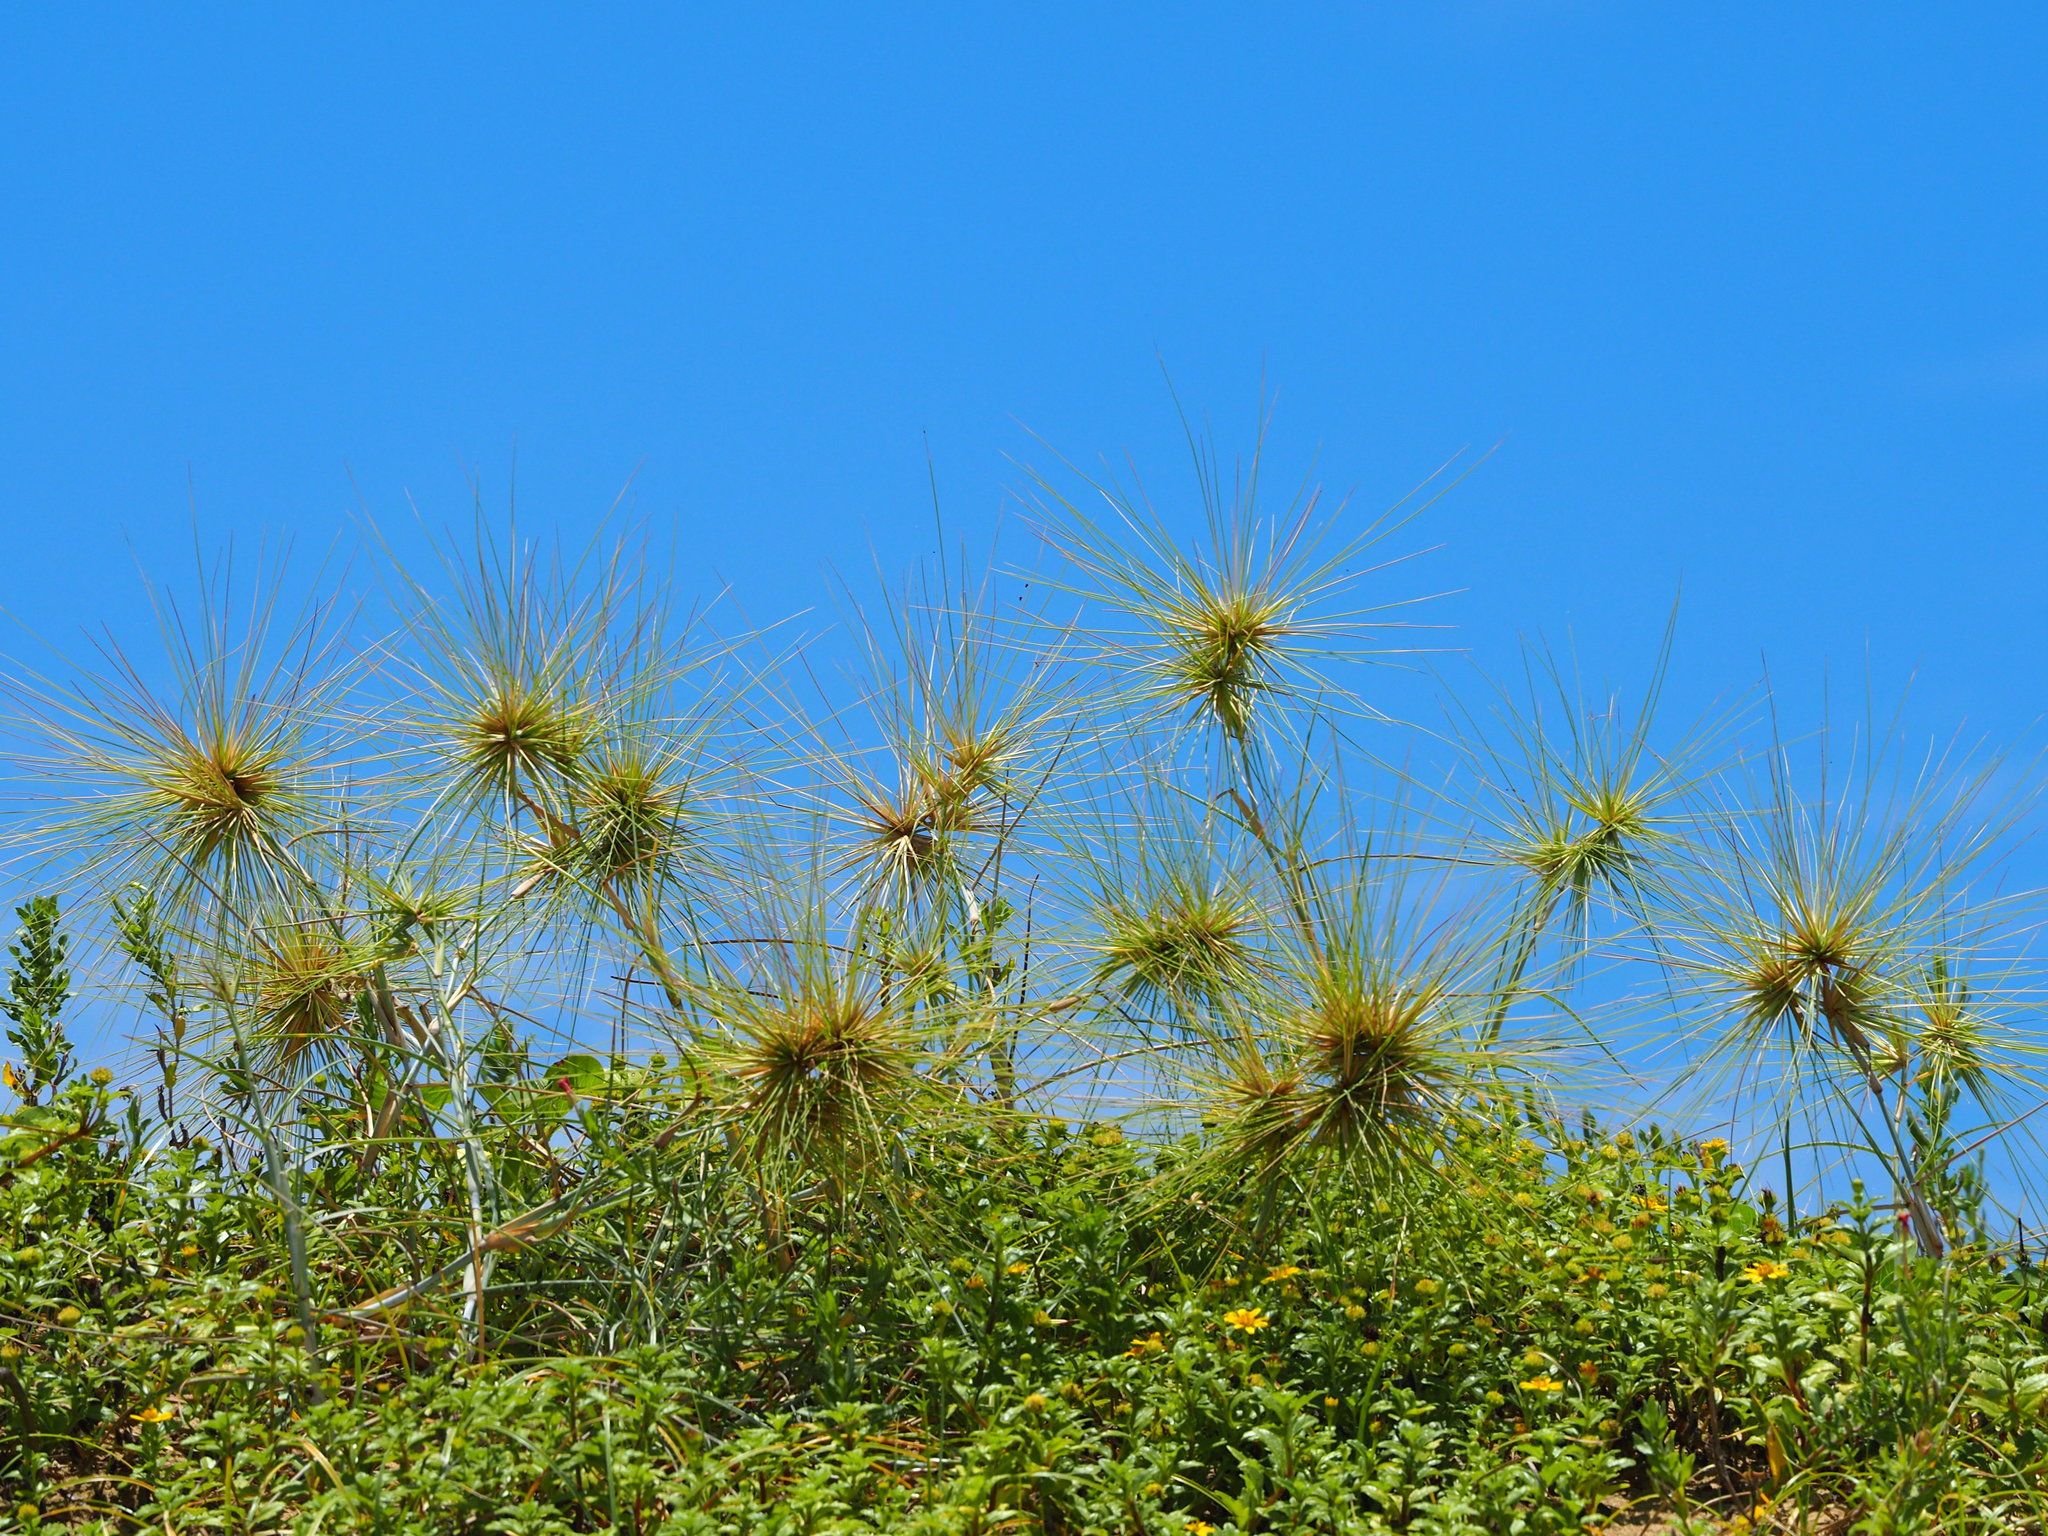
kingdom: Plantae
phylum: Tracheophyta
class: Liliopsida
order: Poales
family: Poaceae
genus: Spinifex
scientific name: Spinifex littoreus
